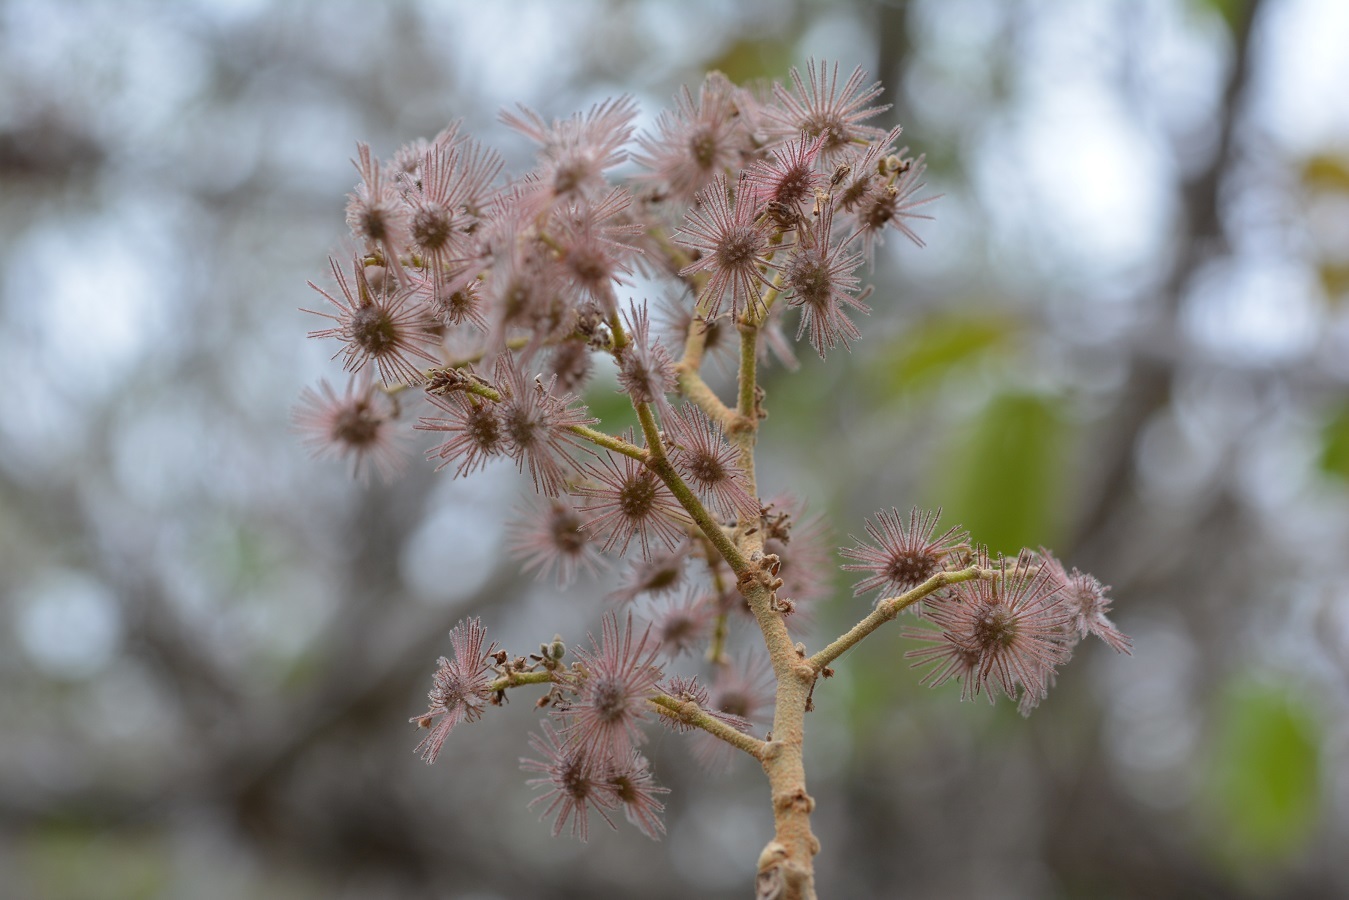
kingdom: Plantae
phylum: Tracheophyta
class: Magnoliopsida
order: Malvales
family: Malvaceae
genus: Heliocarpus
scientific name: Heliocarpus terebinthinaceus
